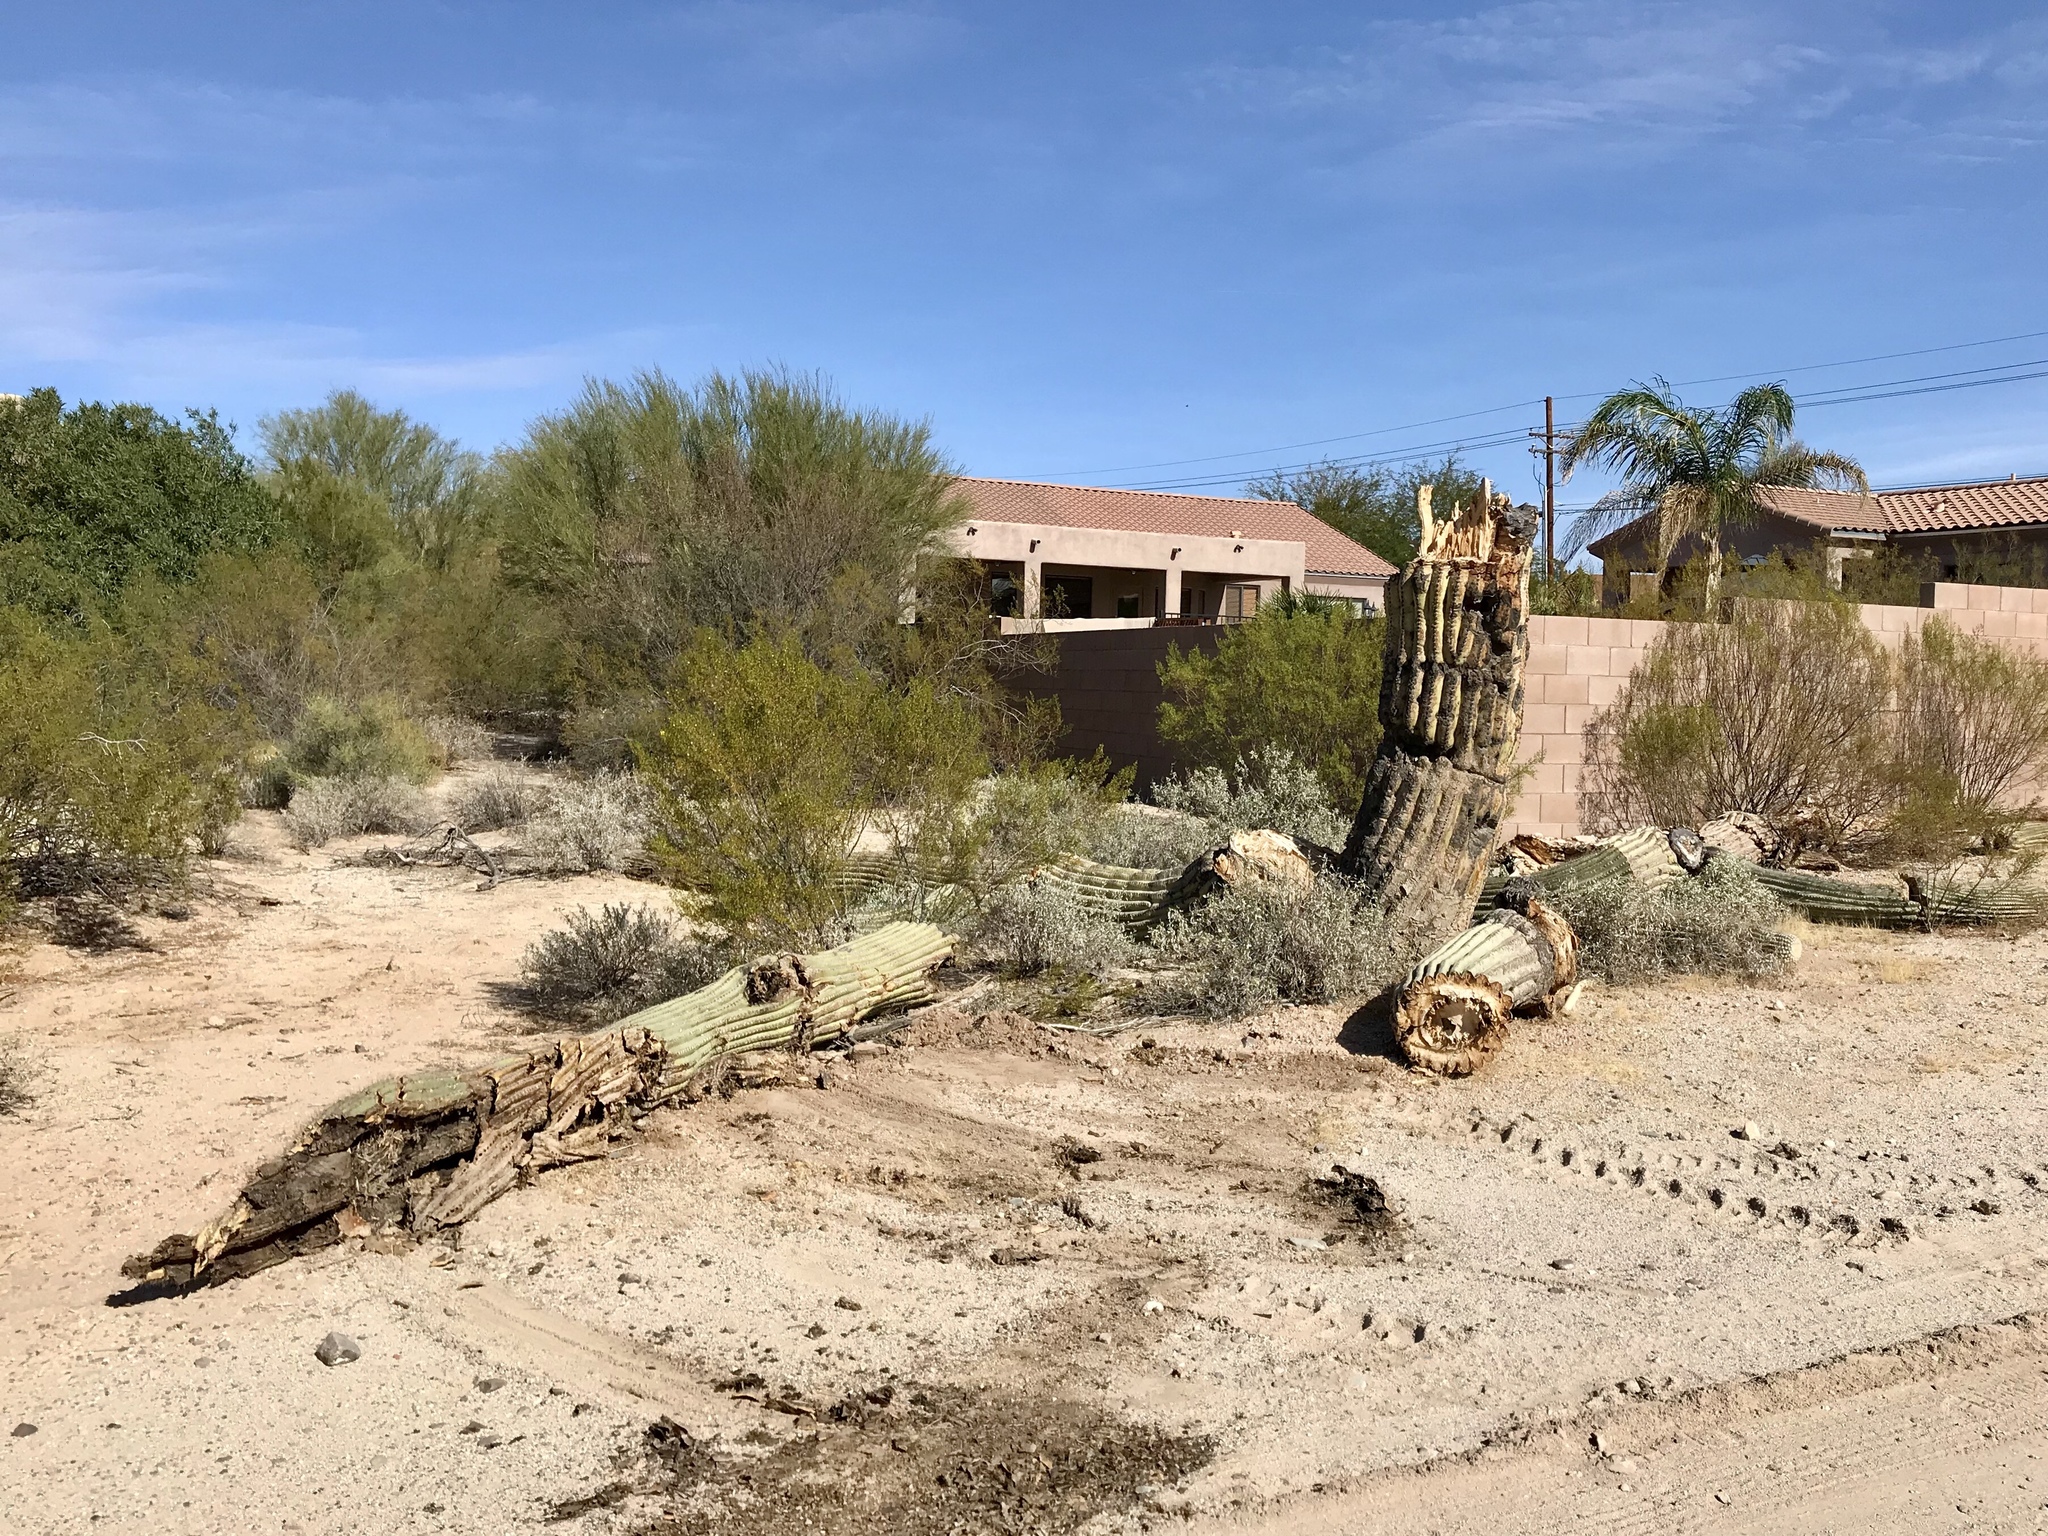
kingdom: Plantae
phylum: Tracheophyta
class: Magnoliopsida
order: Caryophyllales
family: Cactaceae
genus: Carnegiea
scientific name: Carnegiea gigantea
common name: Saguaro
